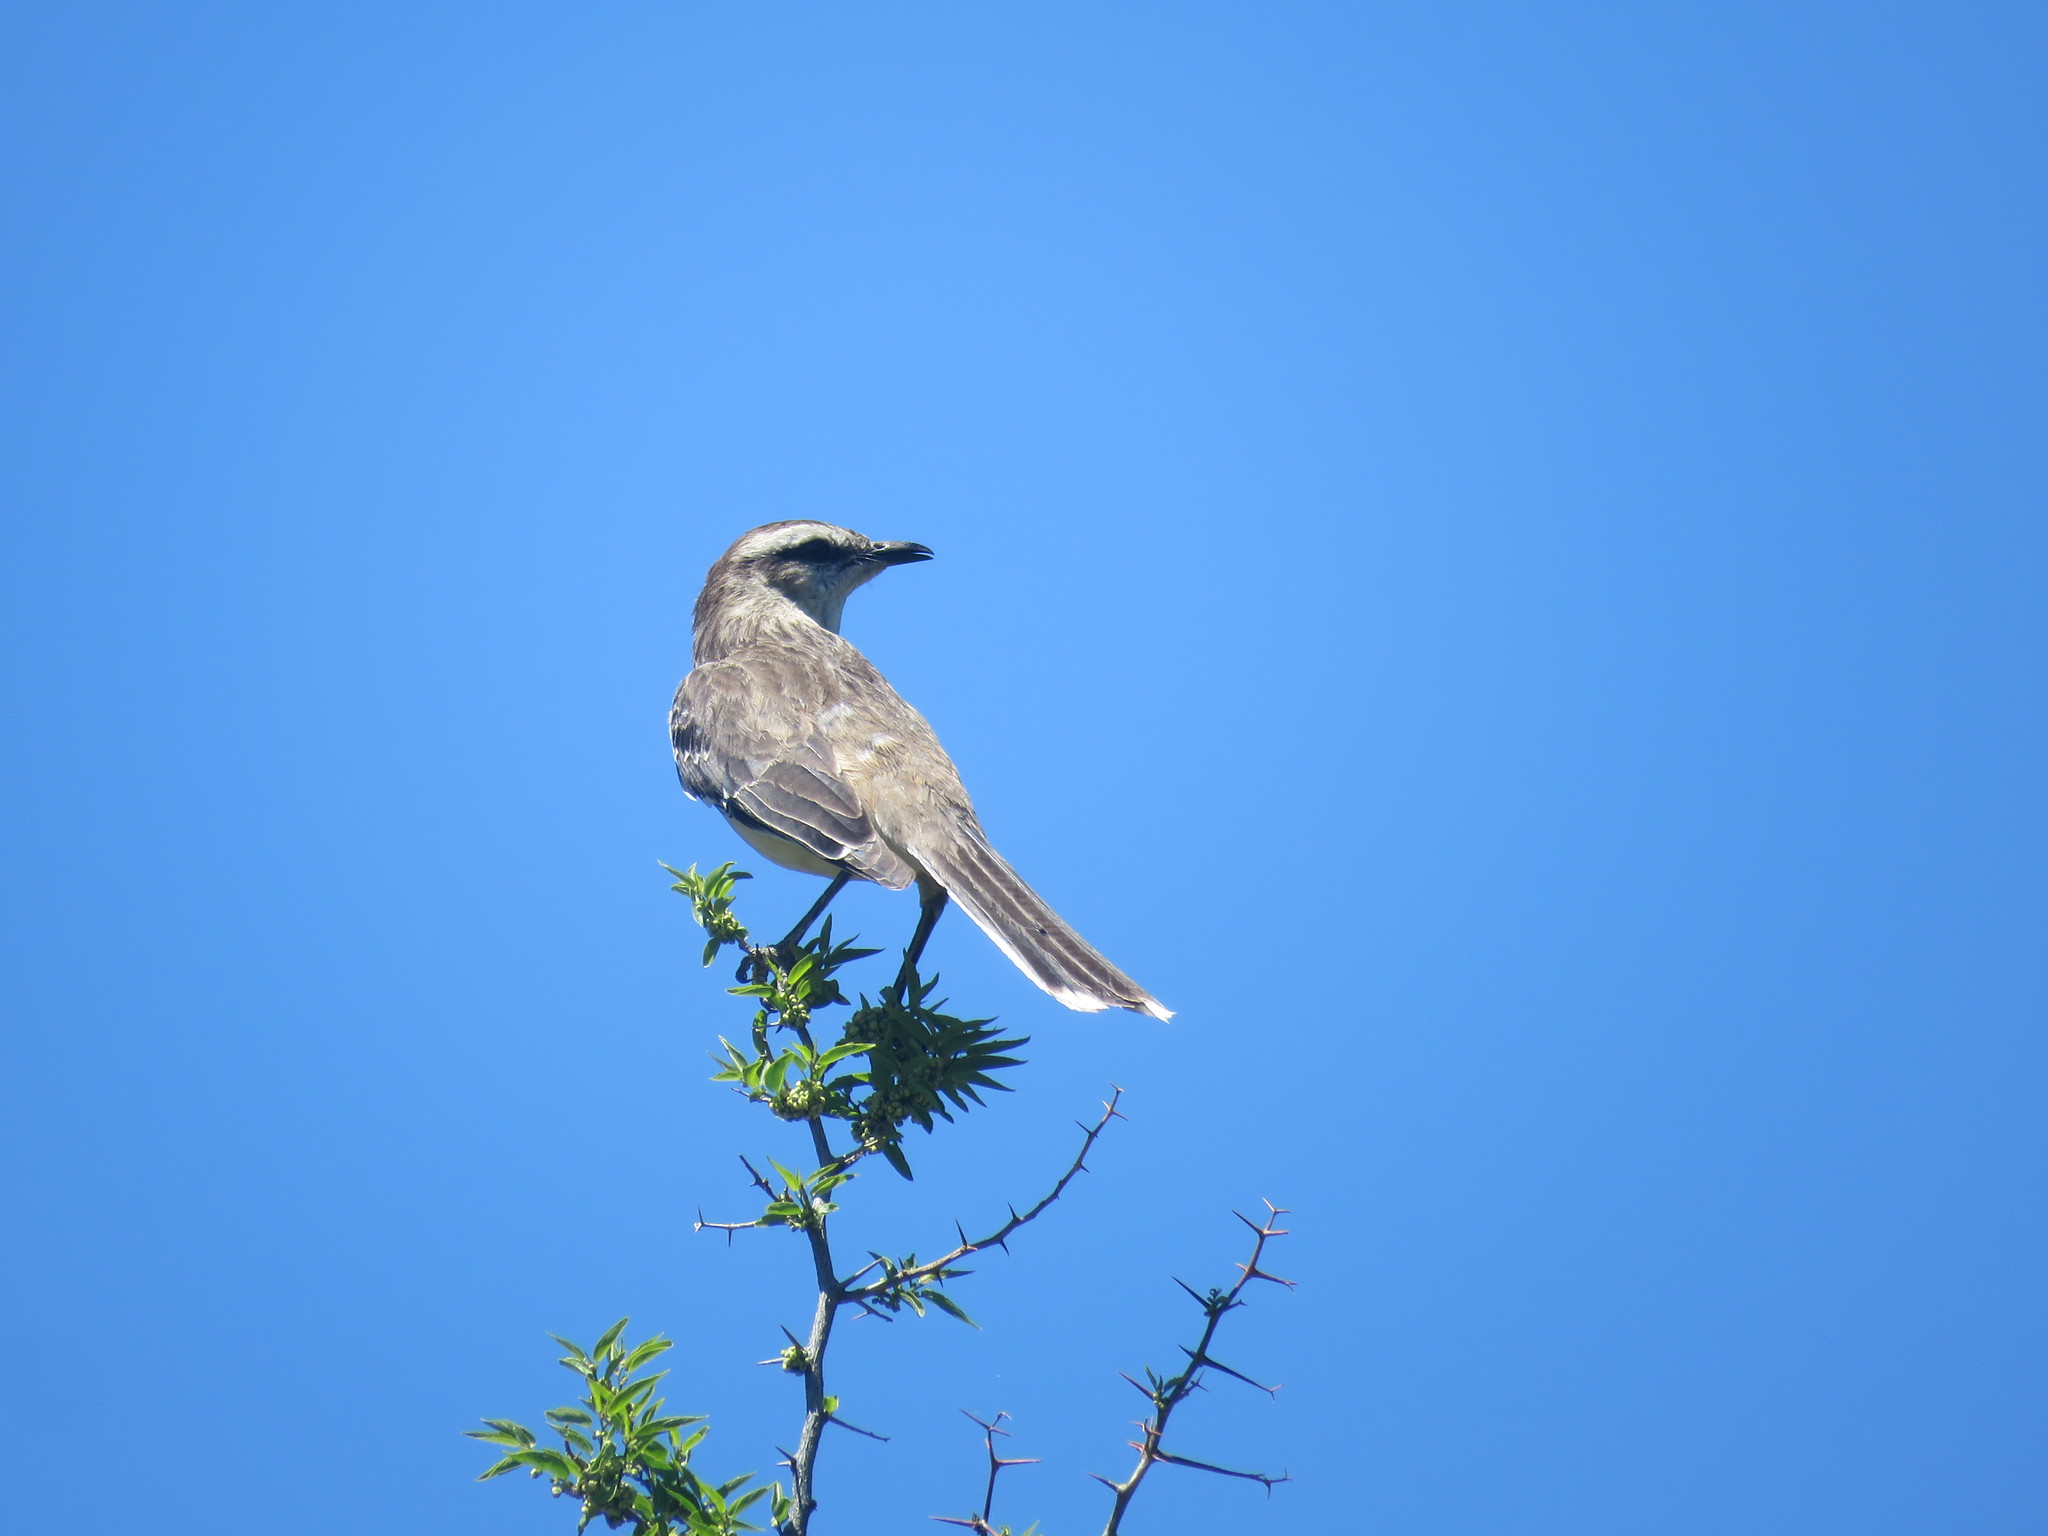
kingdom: Animalia
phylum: Chordata
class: Aves
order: Passeriformes
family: Mimidae
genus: Mimus
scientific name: Mimus saturninus
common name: Chalk-browed mockingbird
